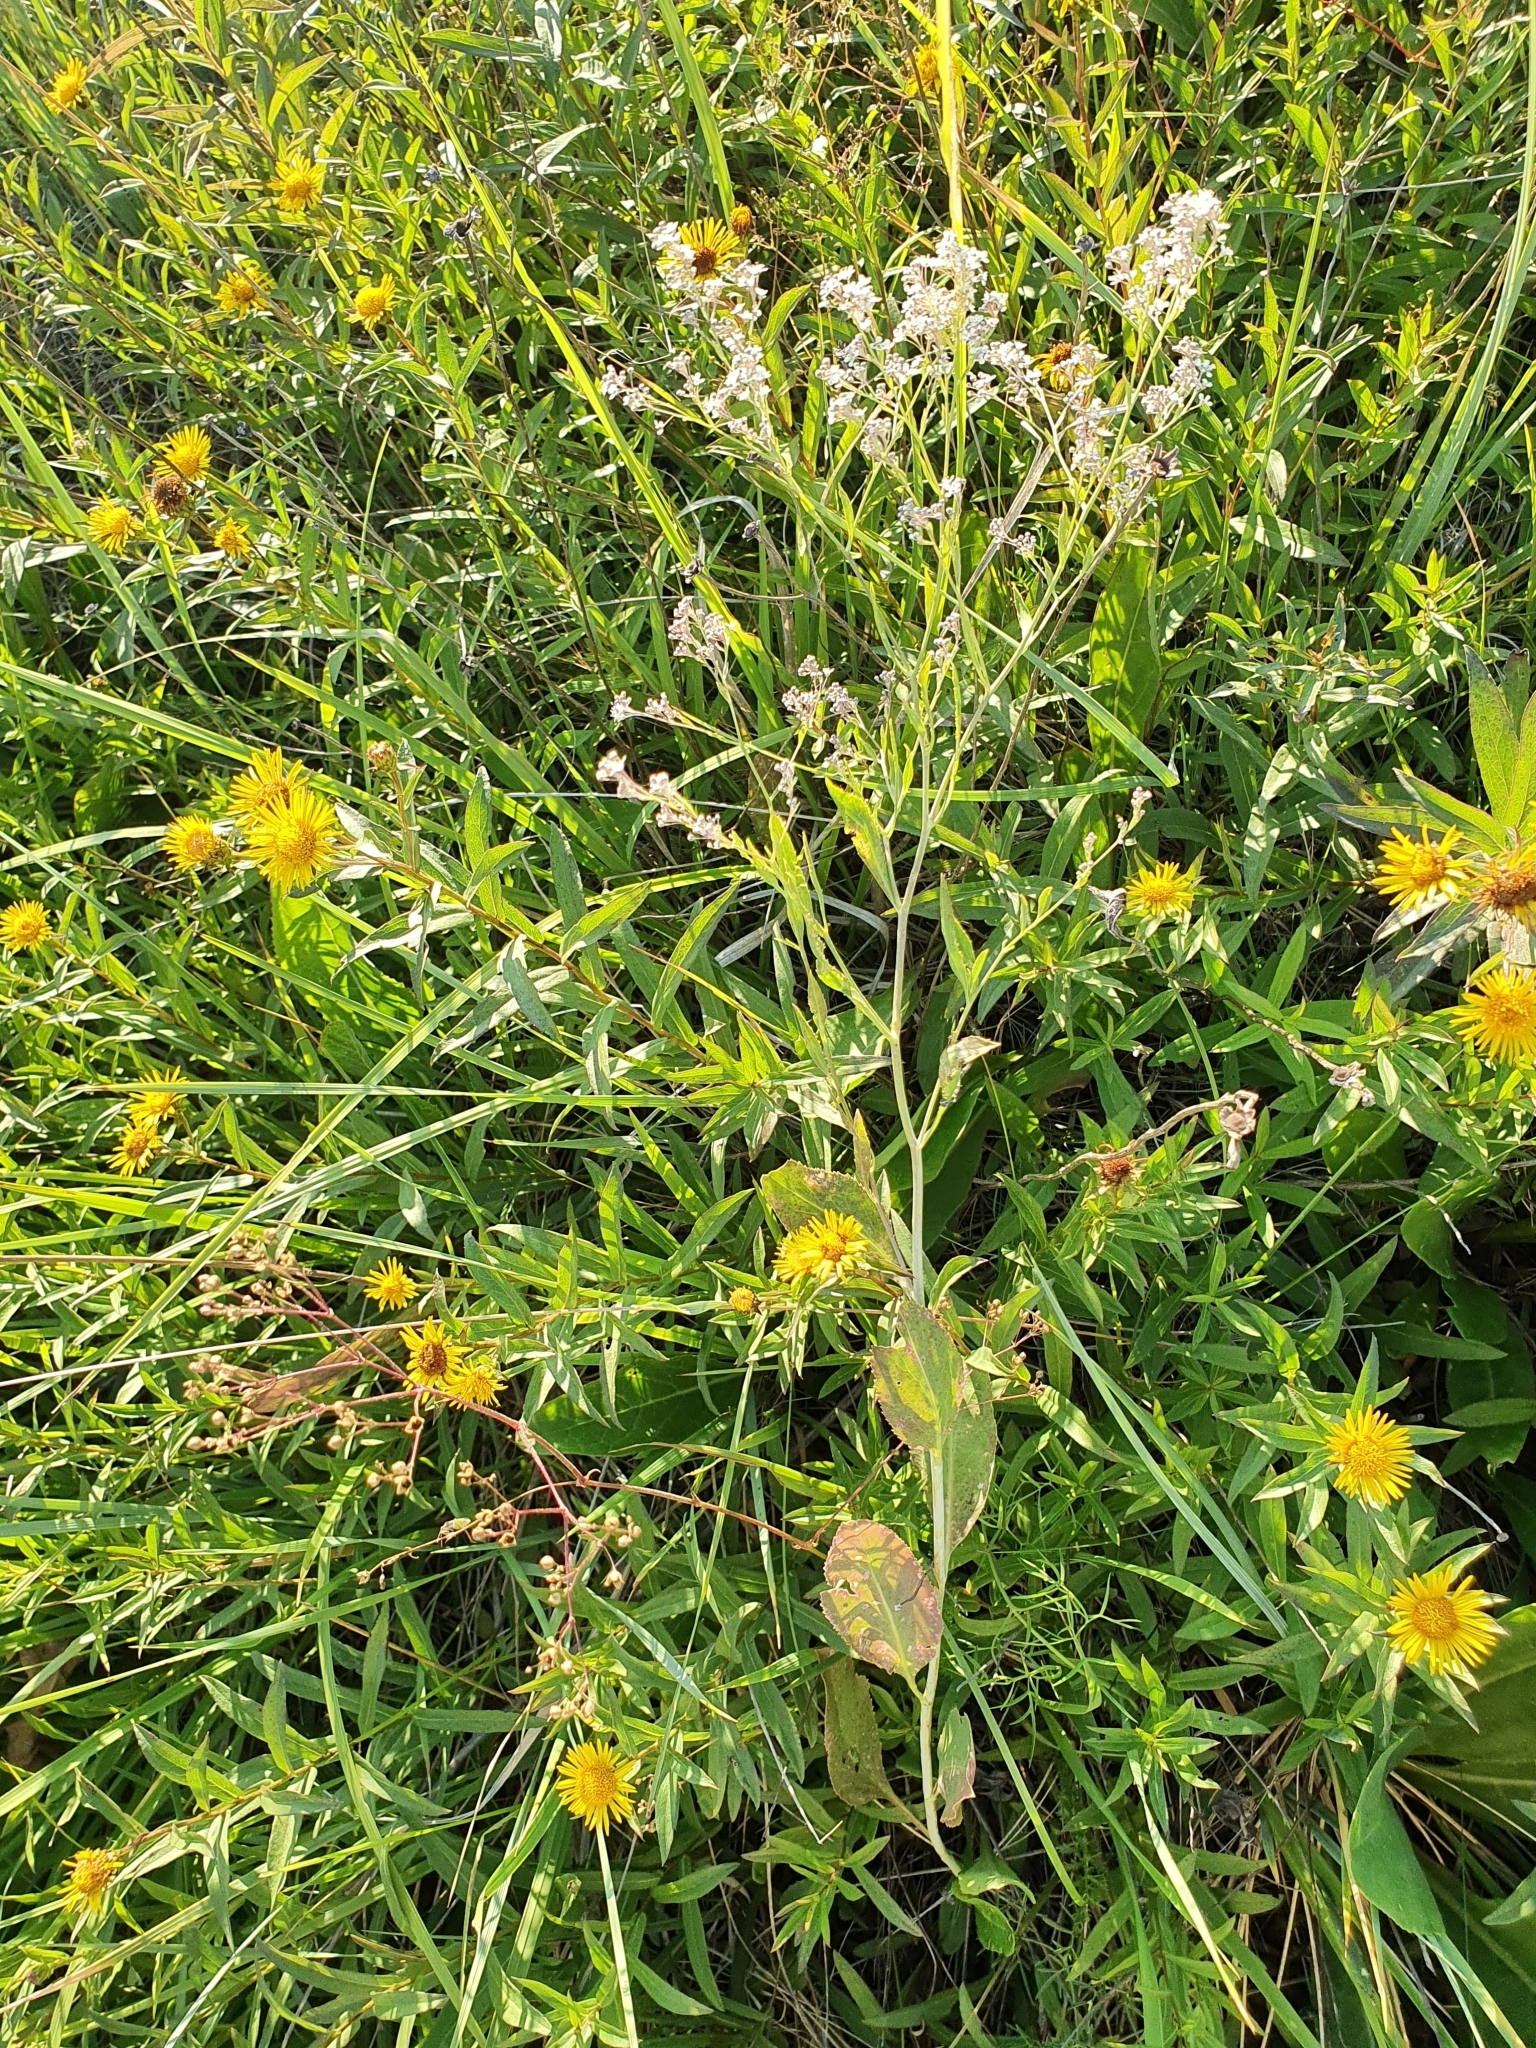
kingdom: Plantae
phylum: Tracheophyta
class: Magnoliopsida
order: Brassicales
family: Brassicaceae
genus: Lepidium
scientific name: Lepidium latifolium
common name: Dittander
